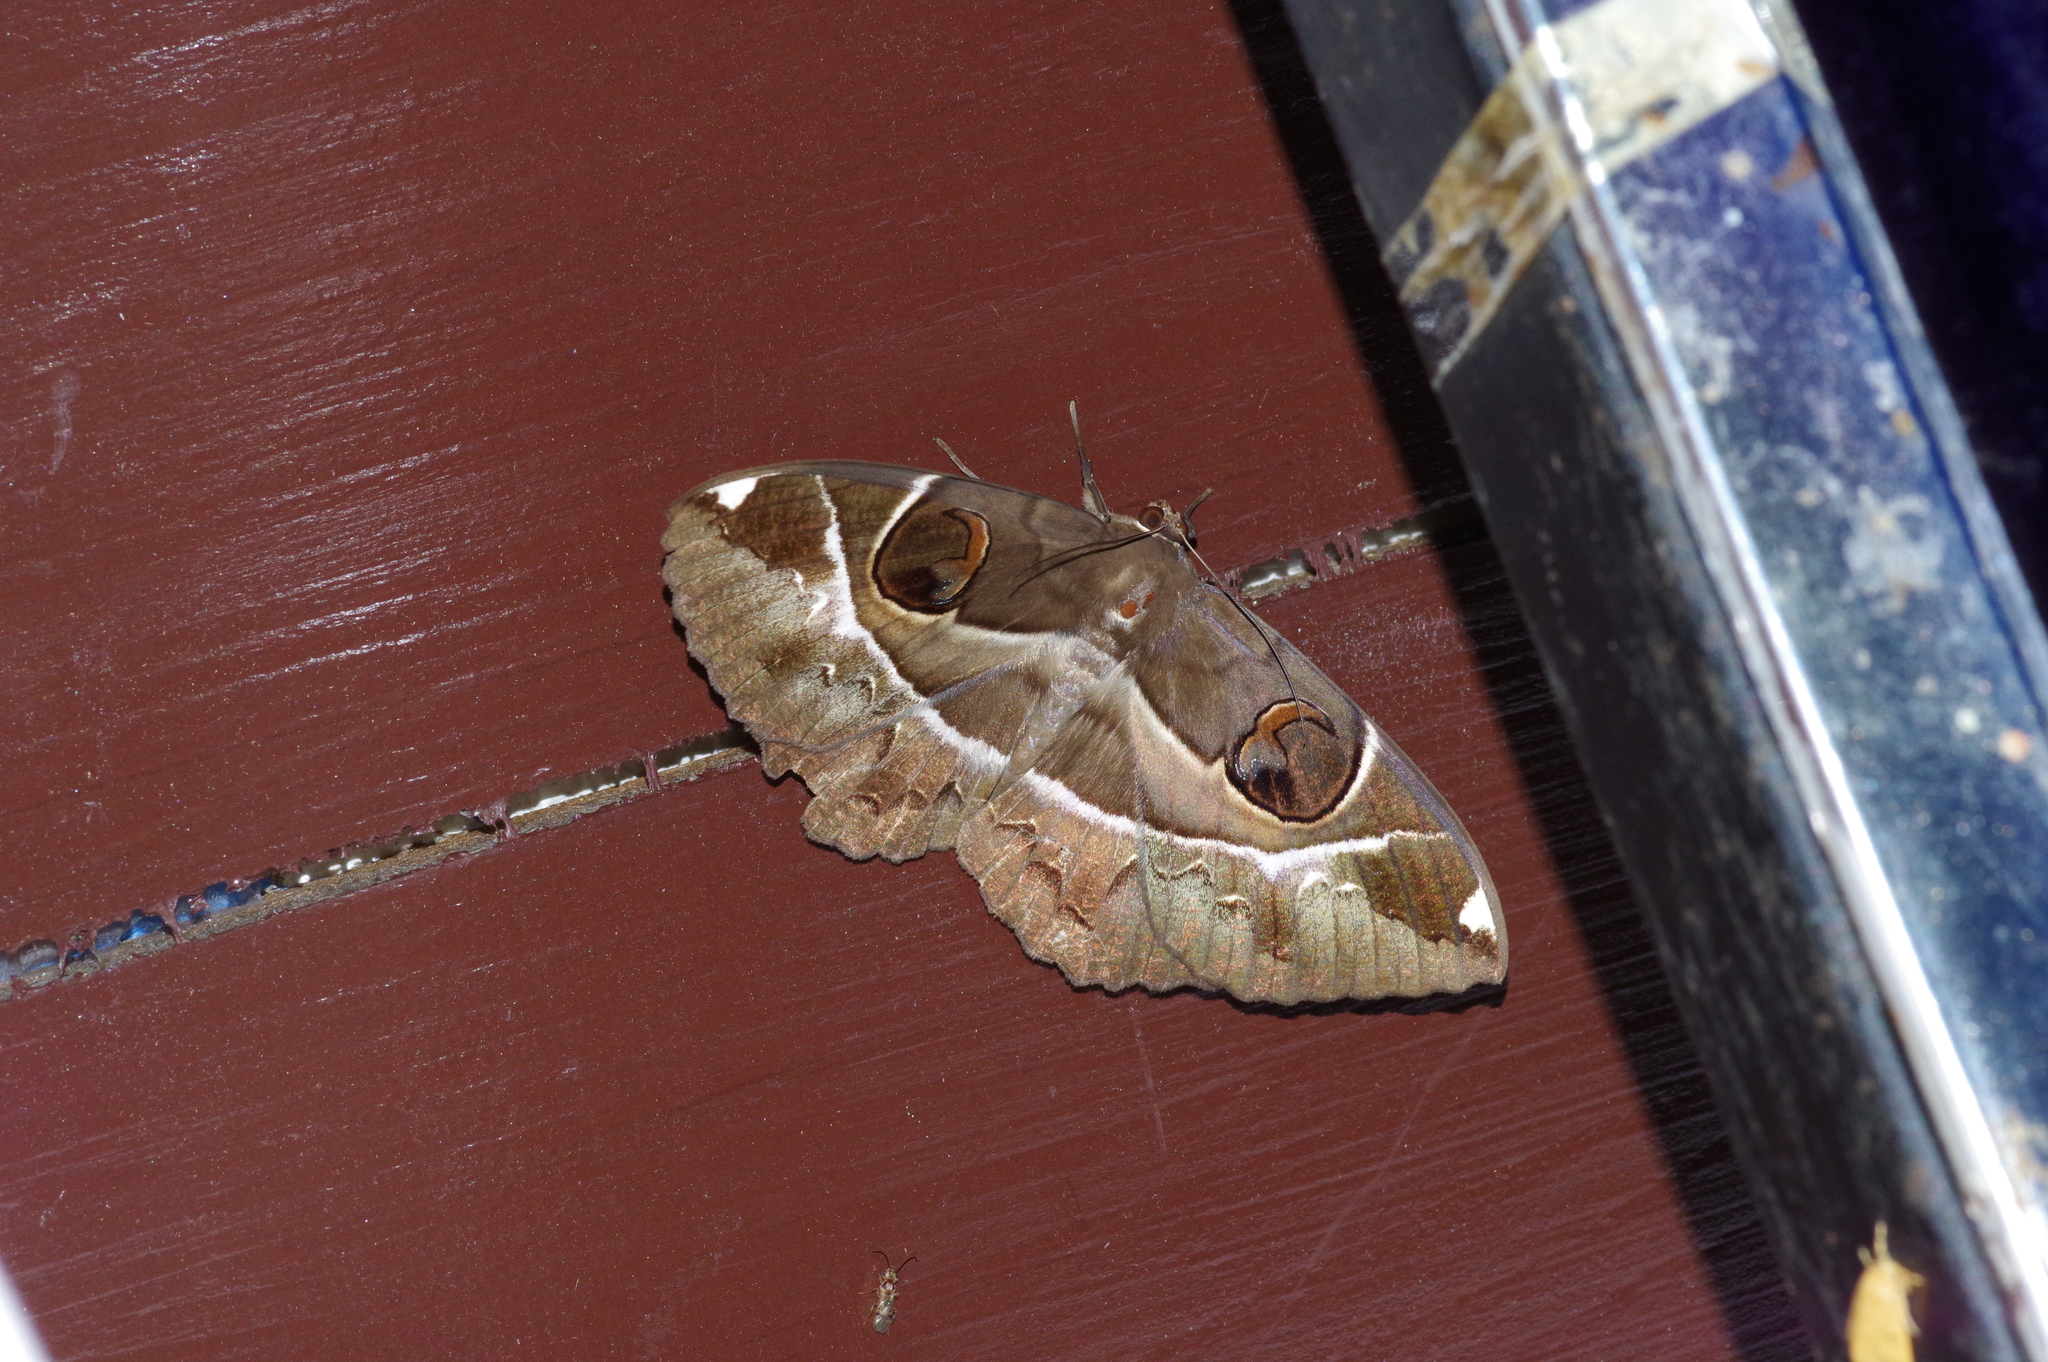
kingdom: Animalia
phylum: Arthropoda
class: Insecta
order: Lepidoptera
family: Erebidae
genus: Erebus
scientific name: Erebus ephesperis
